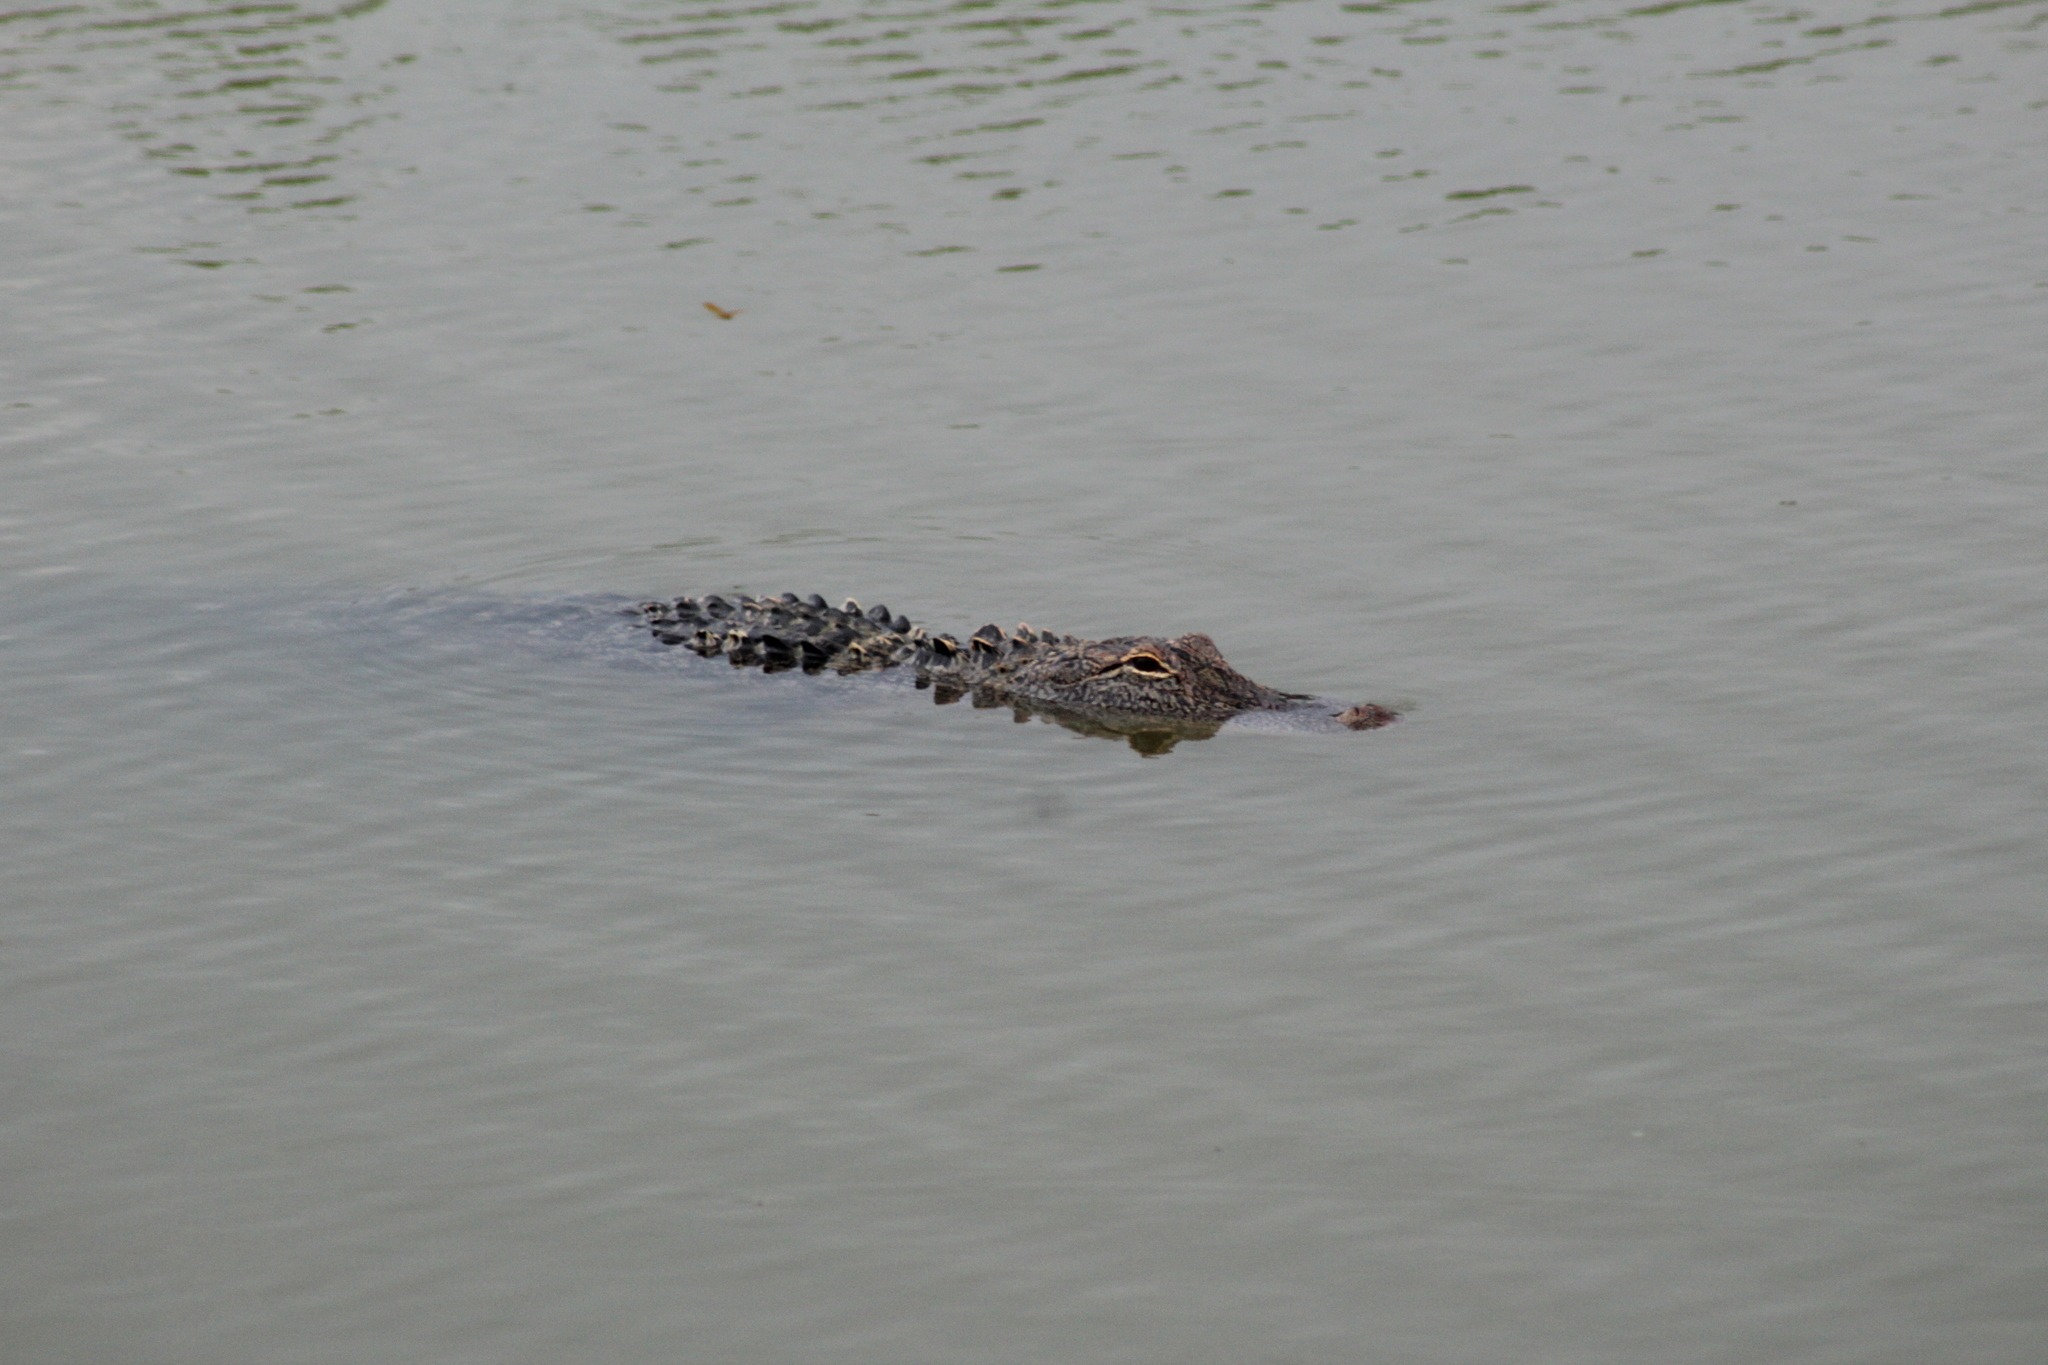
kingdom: Animalia
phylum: Chordata
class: Crocodylia
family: Alligatoridae
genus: Alligator
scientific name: Alligator mississippiensis
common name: American alligator
